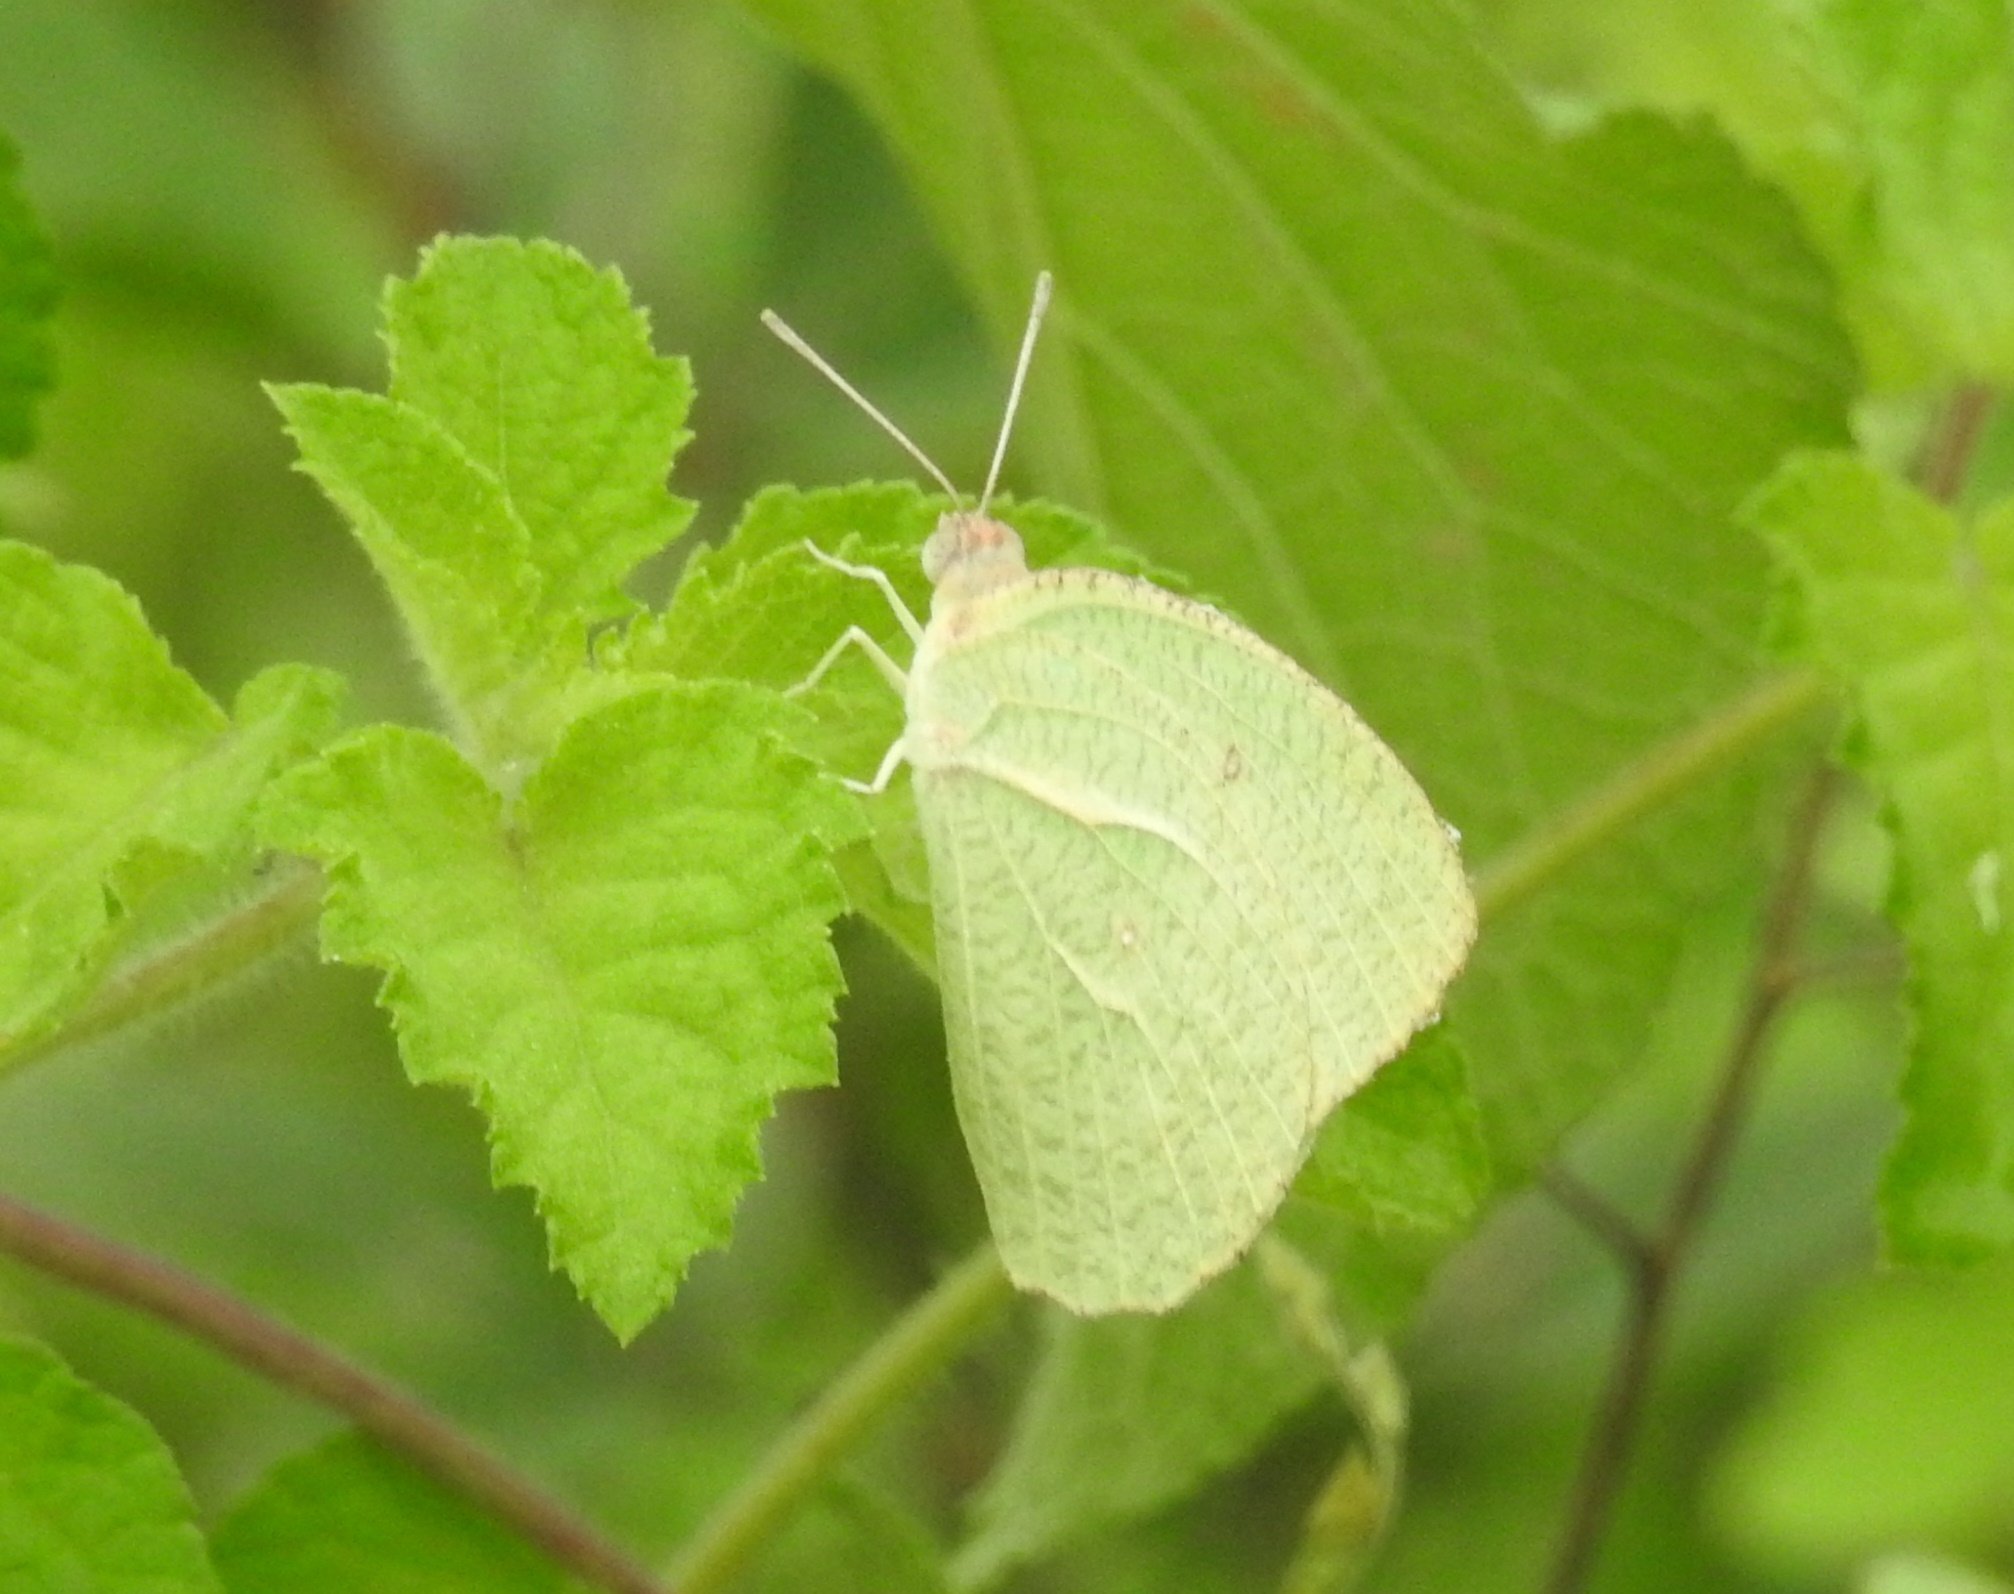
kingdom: Animalia
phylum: Arthropoda
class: Insecta
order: Lepidoptera
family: Pieridae
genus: Catopsilia
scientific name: Catopsilia pyranthe
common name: Mottled emigrant
